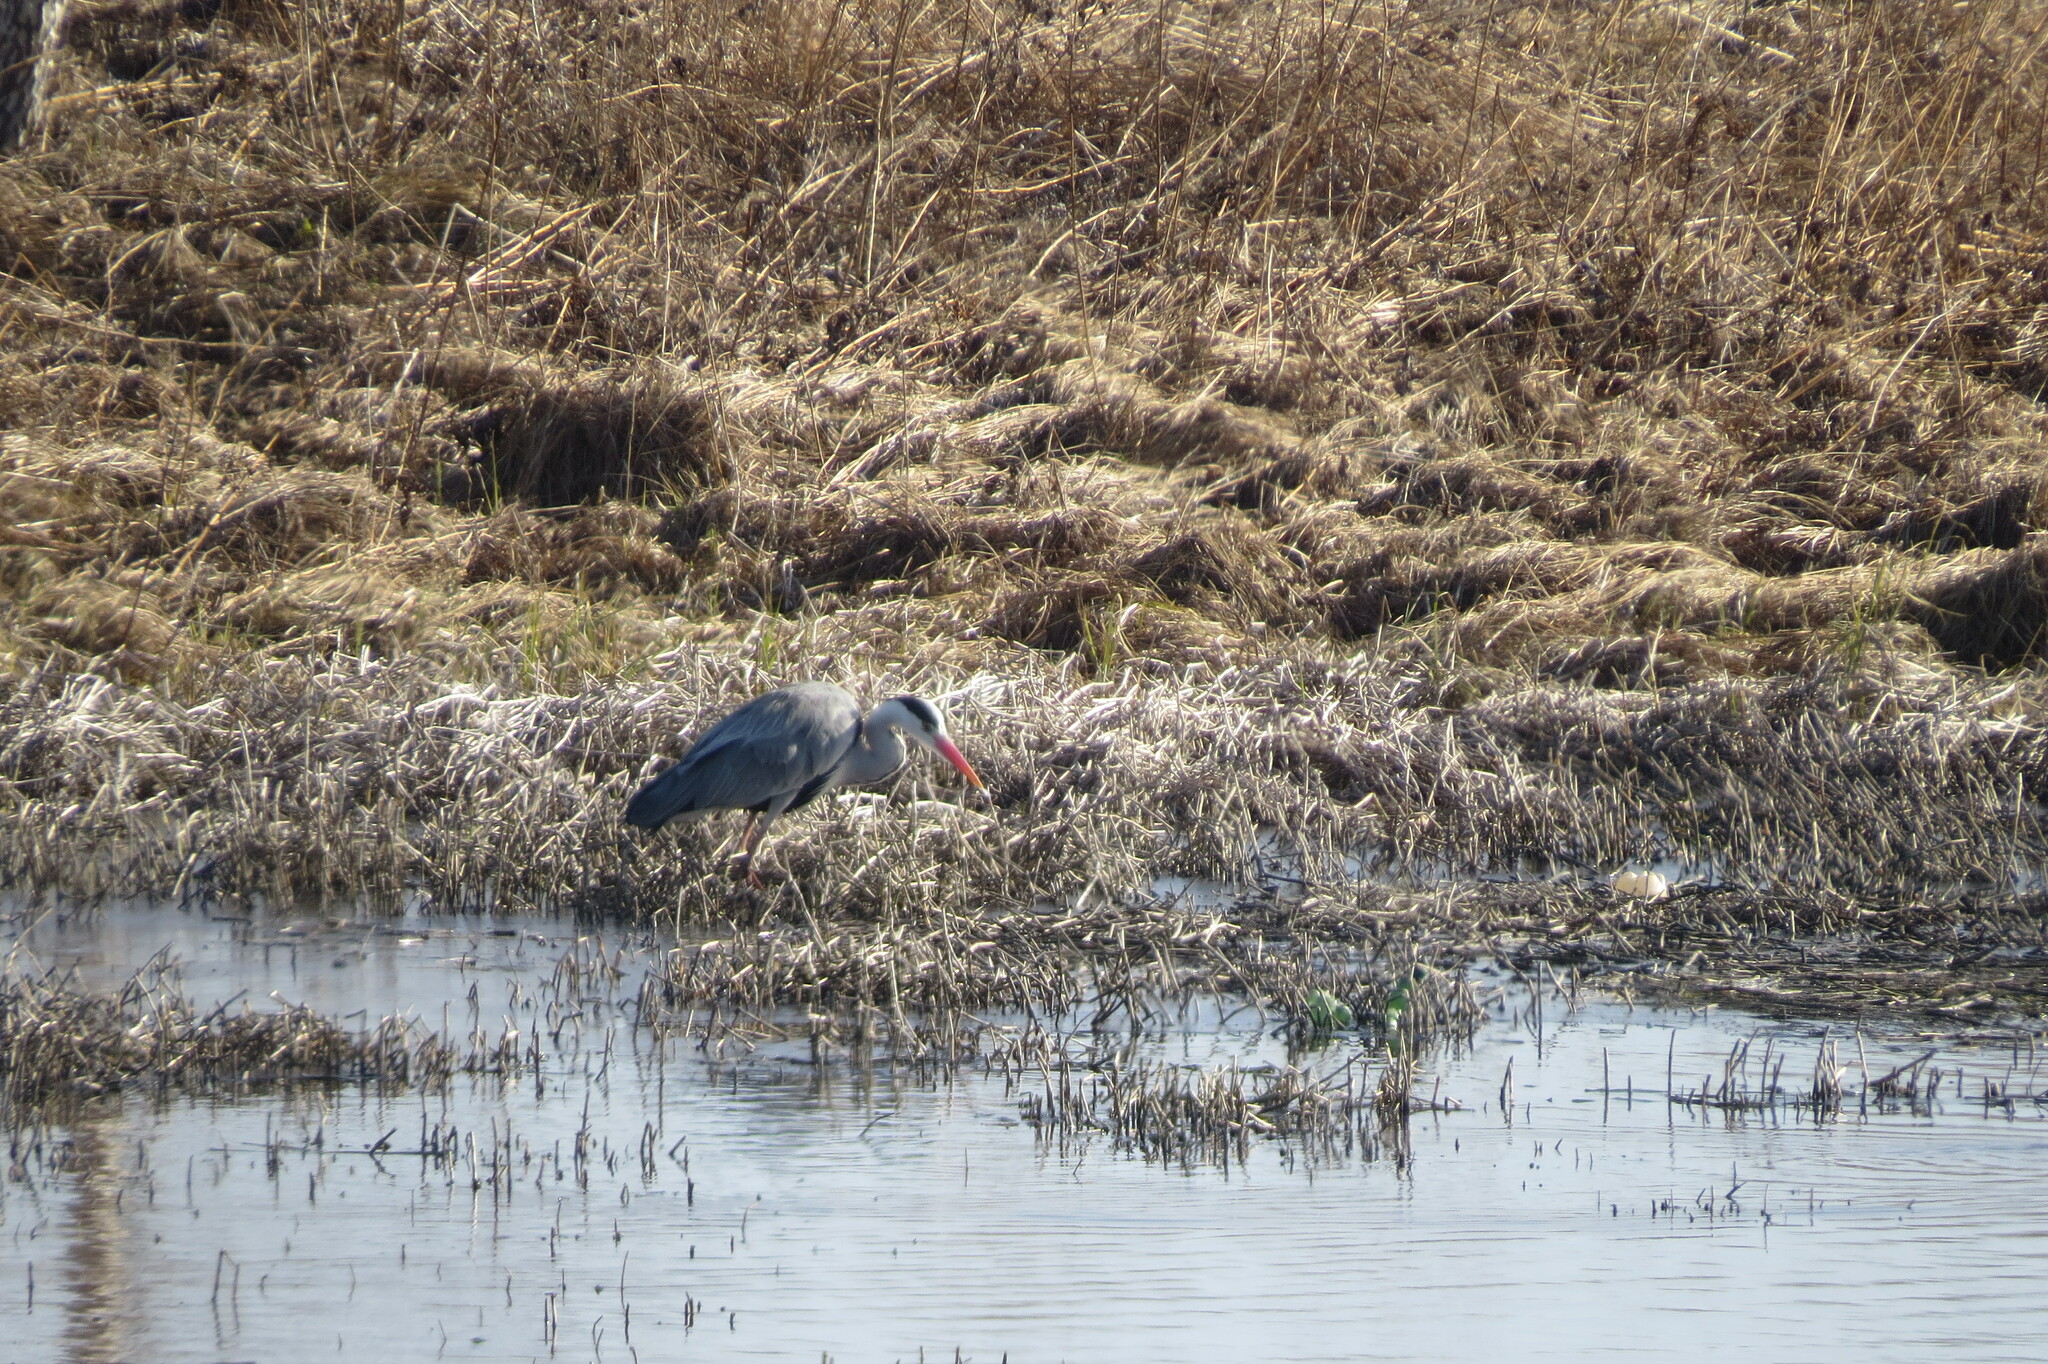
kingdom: Animalia
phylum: Chordata
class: Aves
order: Pelecaniformes
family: Ardeidae
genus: Ardea
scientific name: Ardea cinerea
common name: Grey heron
